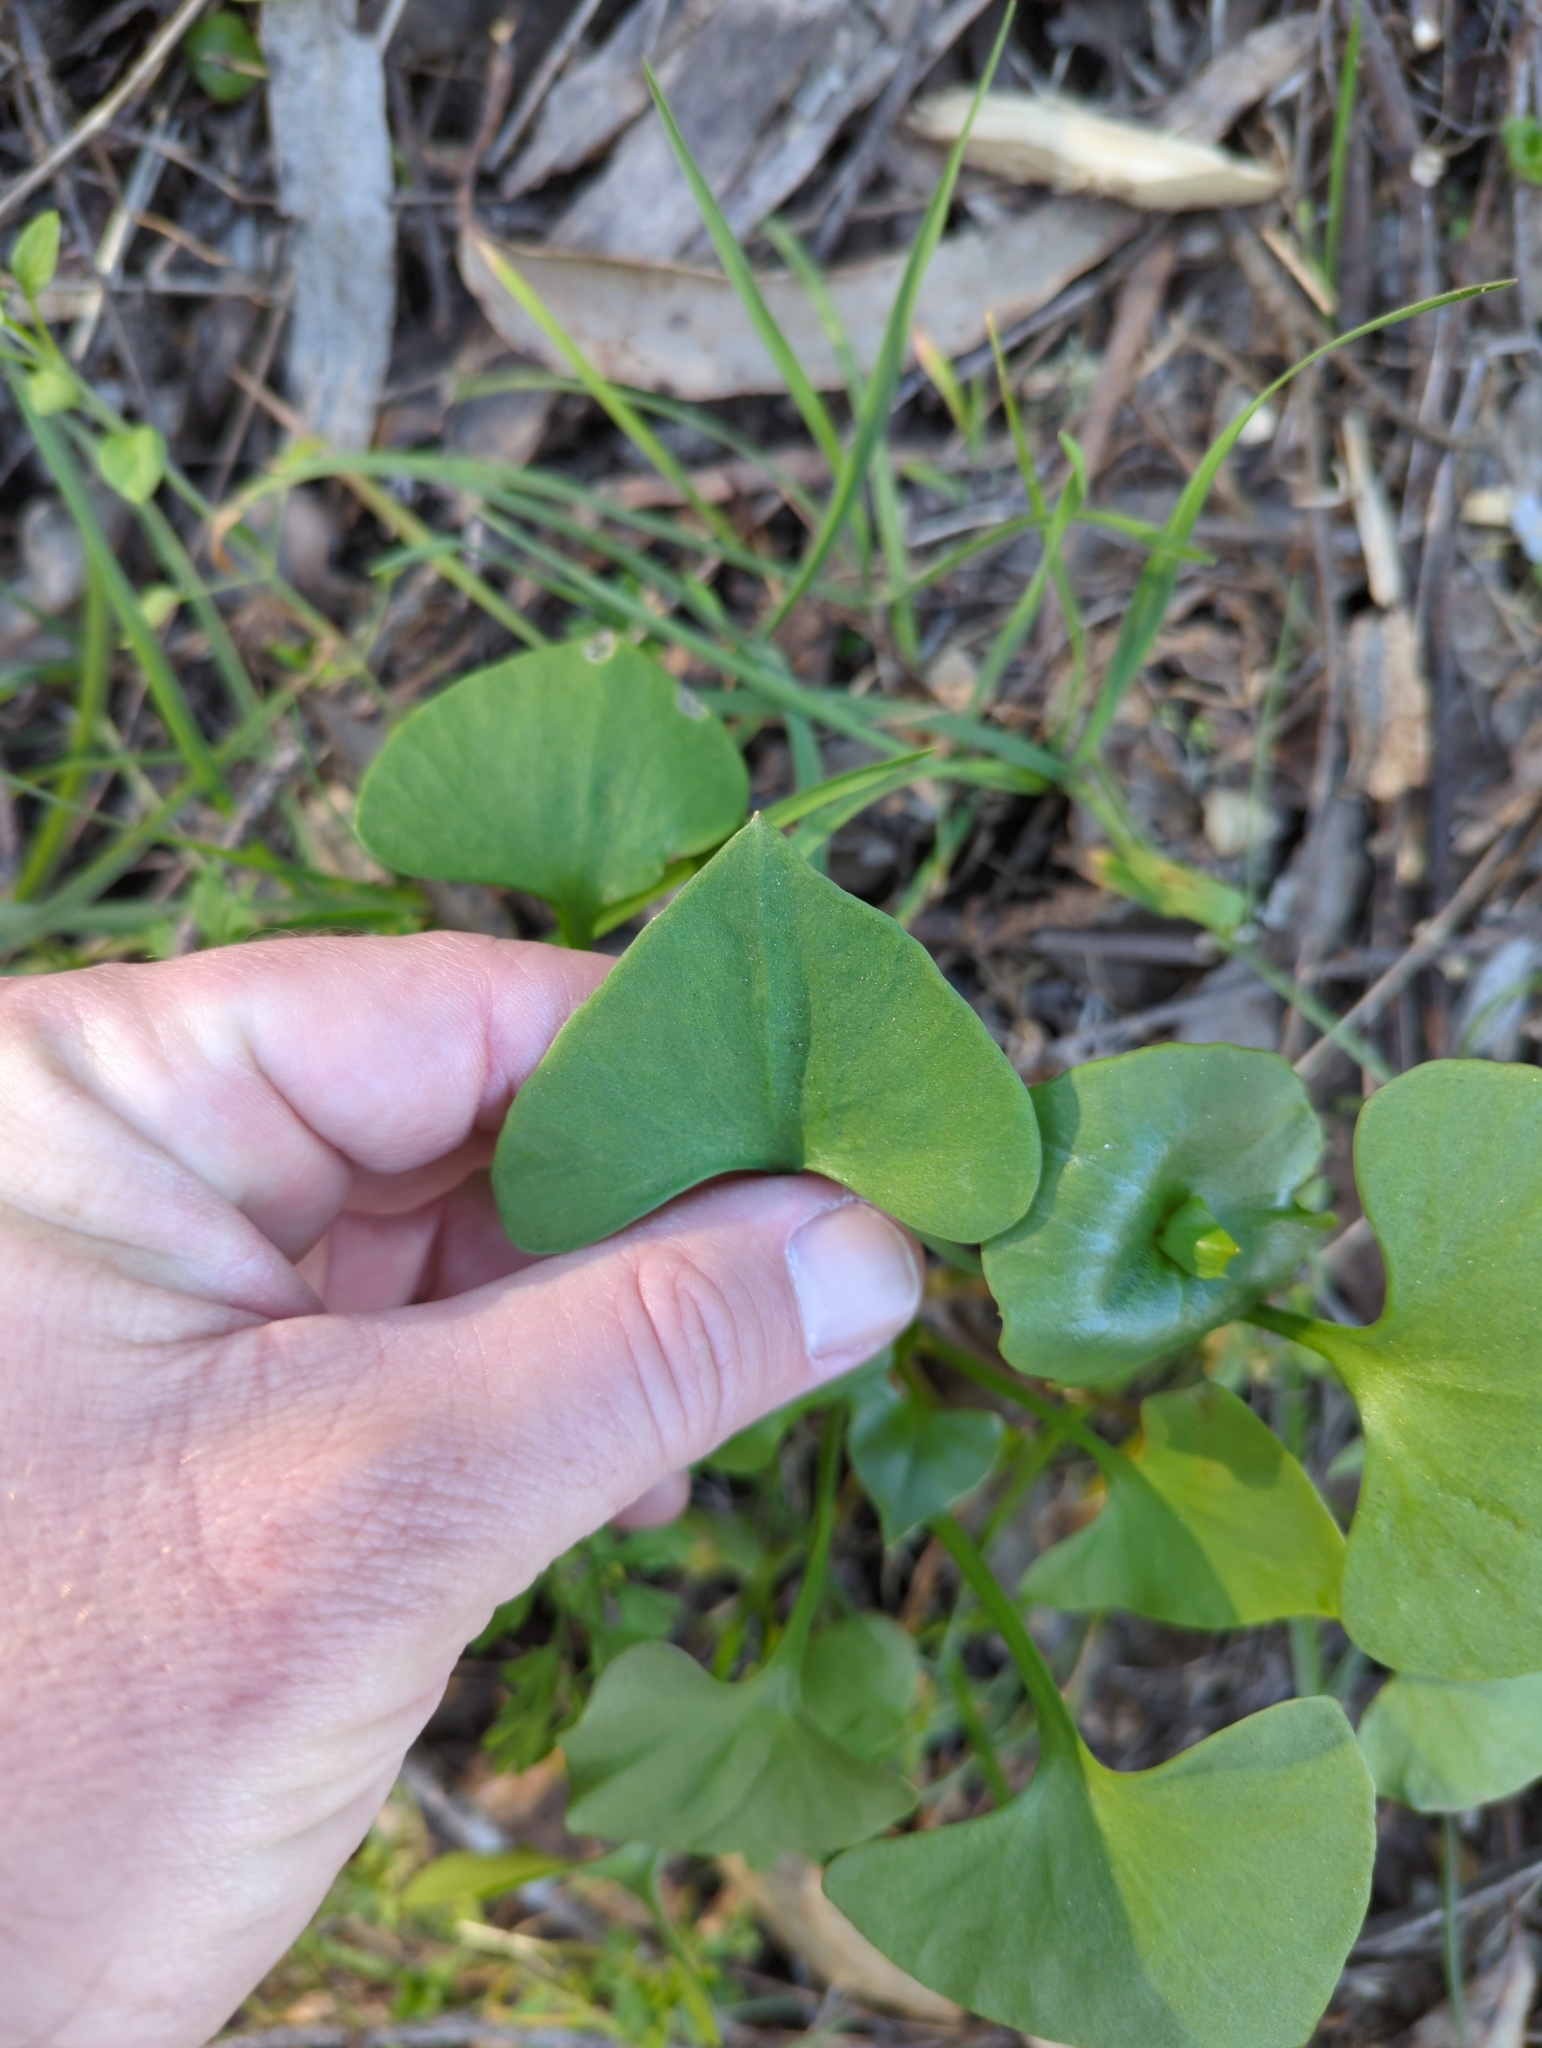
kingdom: Plantae
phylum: Tracheophyta
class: Magnoliopsida
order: Caryophyllales
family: Montiaceae
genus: Claytonia
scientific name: Claytonia perfoliata
